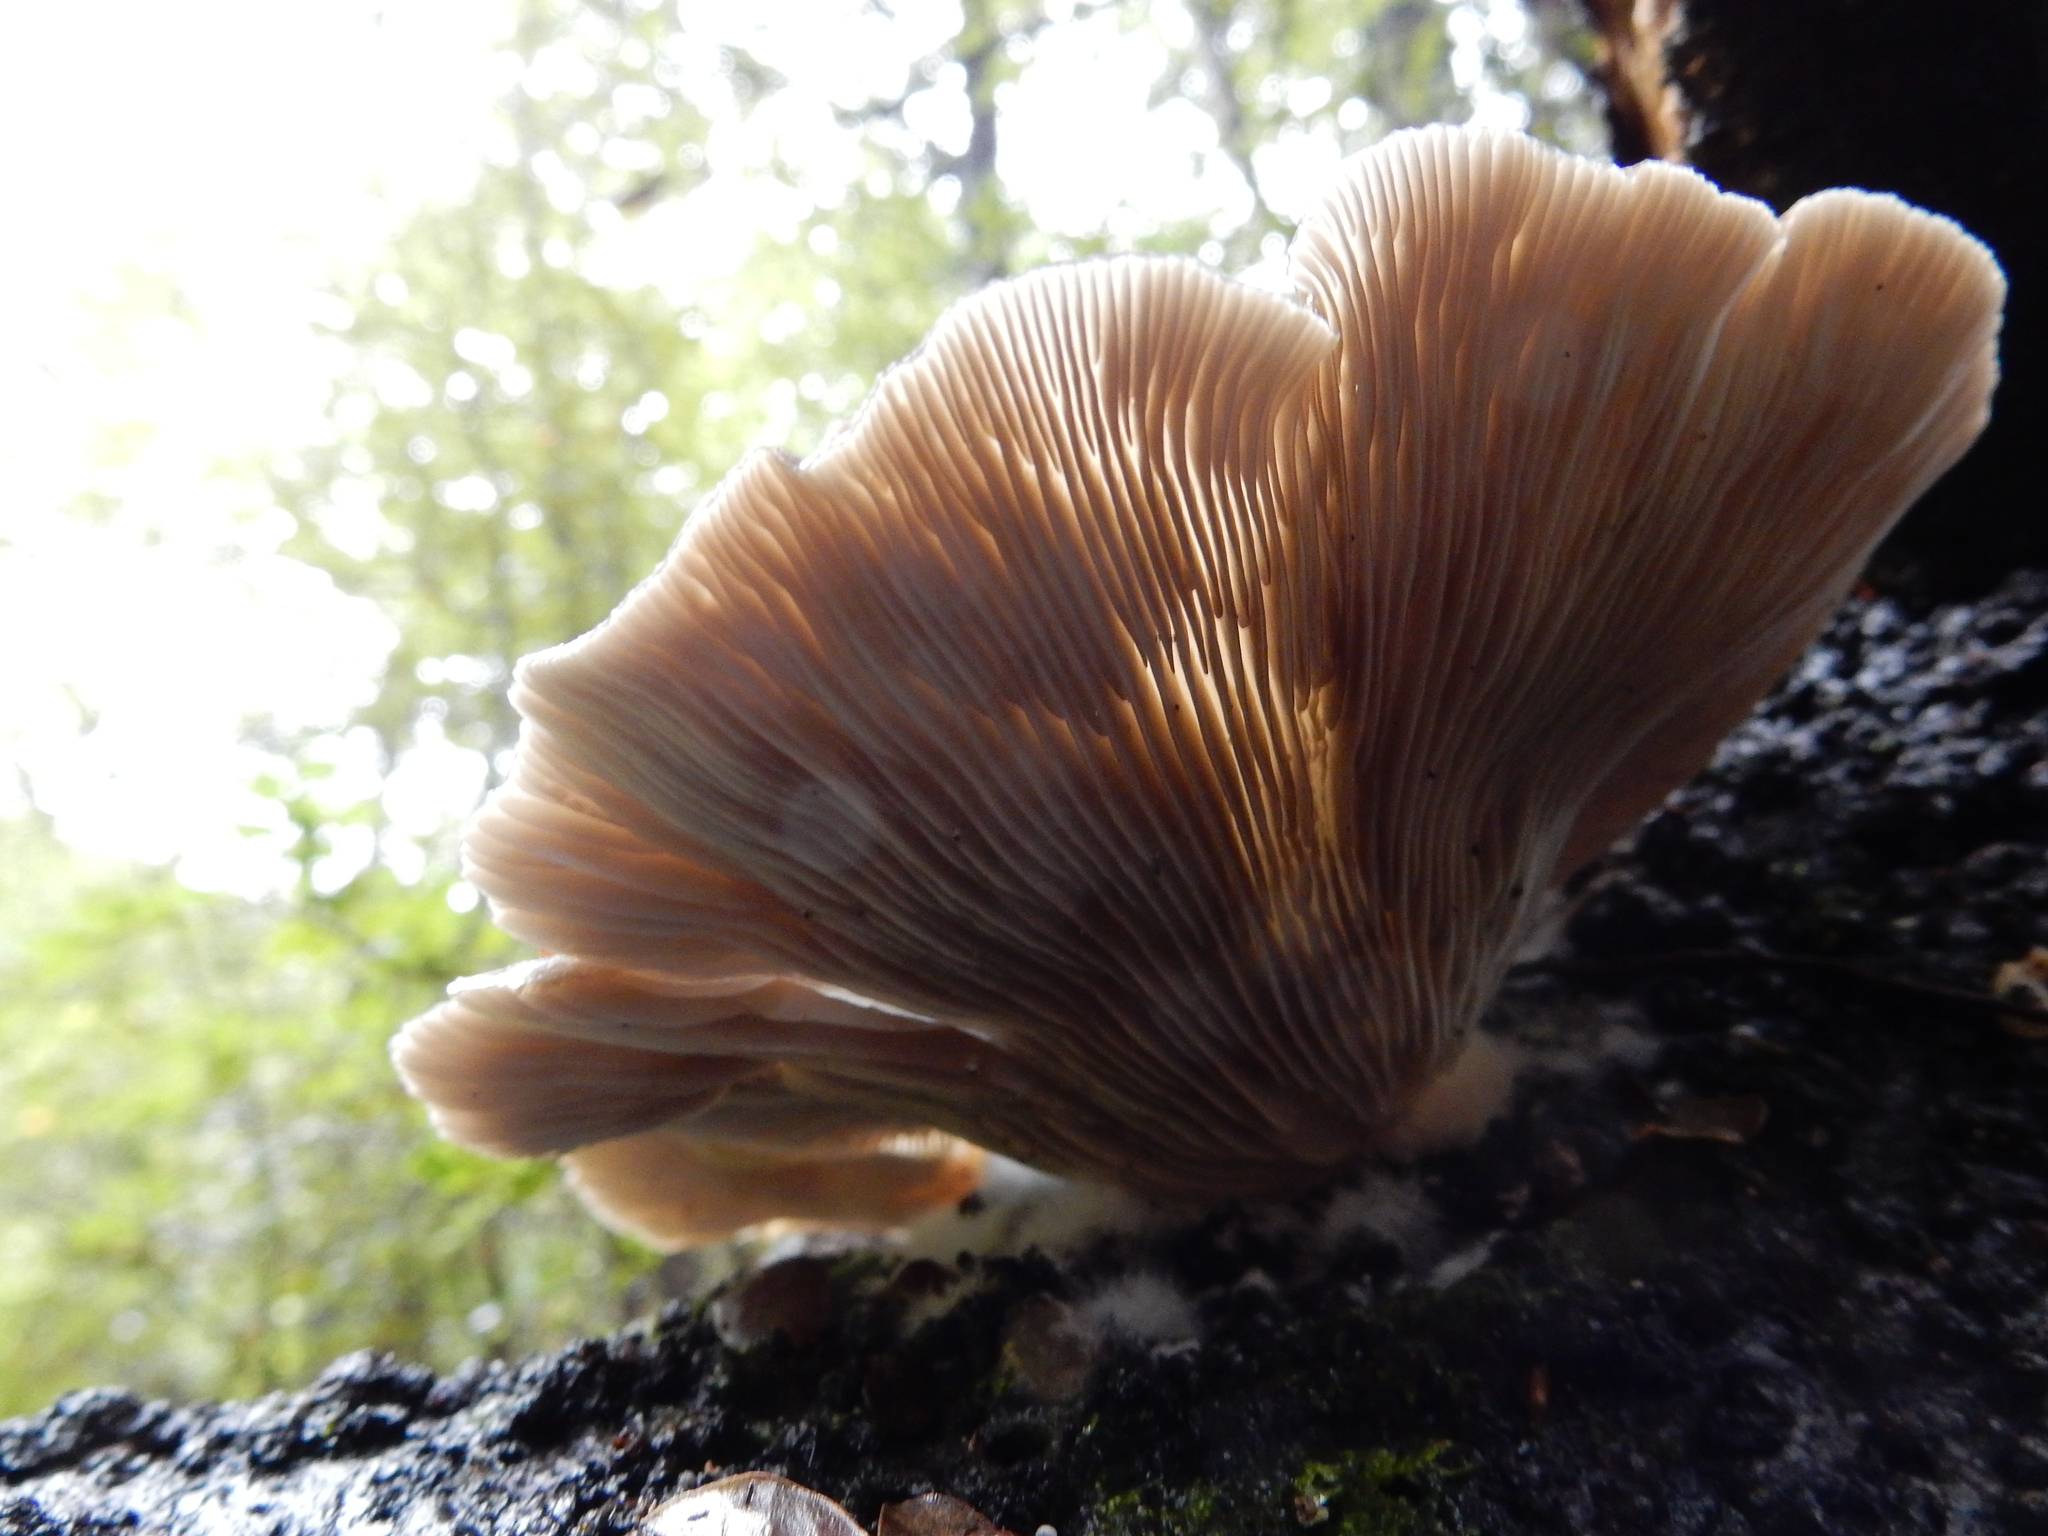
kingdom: Fungi
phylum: Basidiomycota
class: Agaricomycetes
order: Agaricales
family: Pleurotaceae
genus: Pleurotus
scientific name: Pleurotus purpureo-olivaceus
